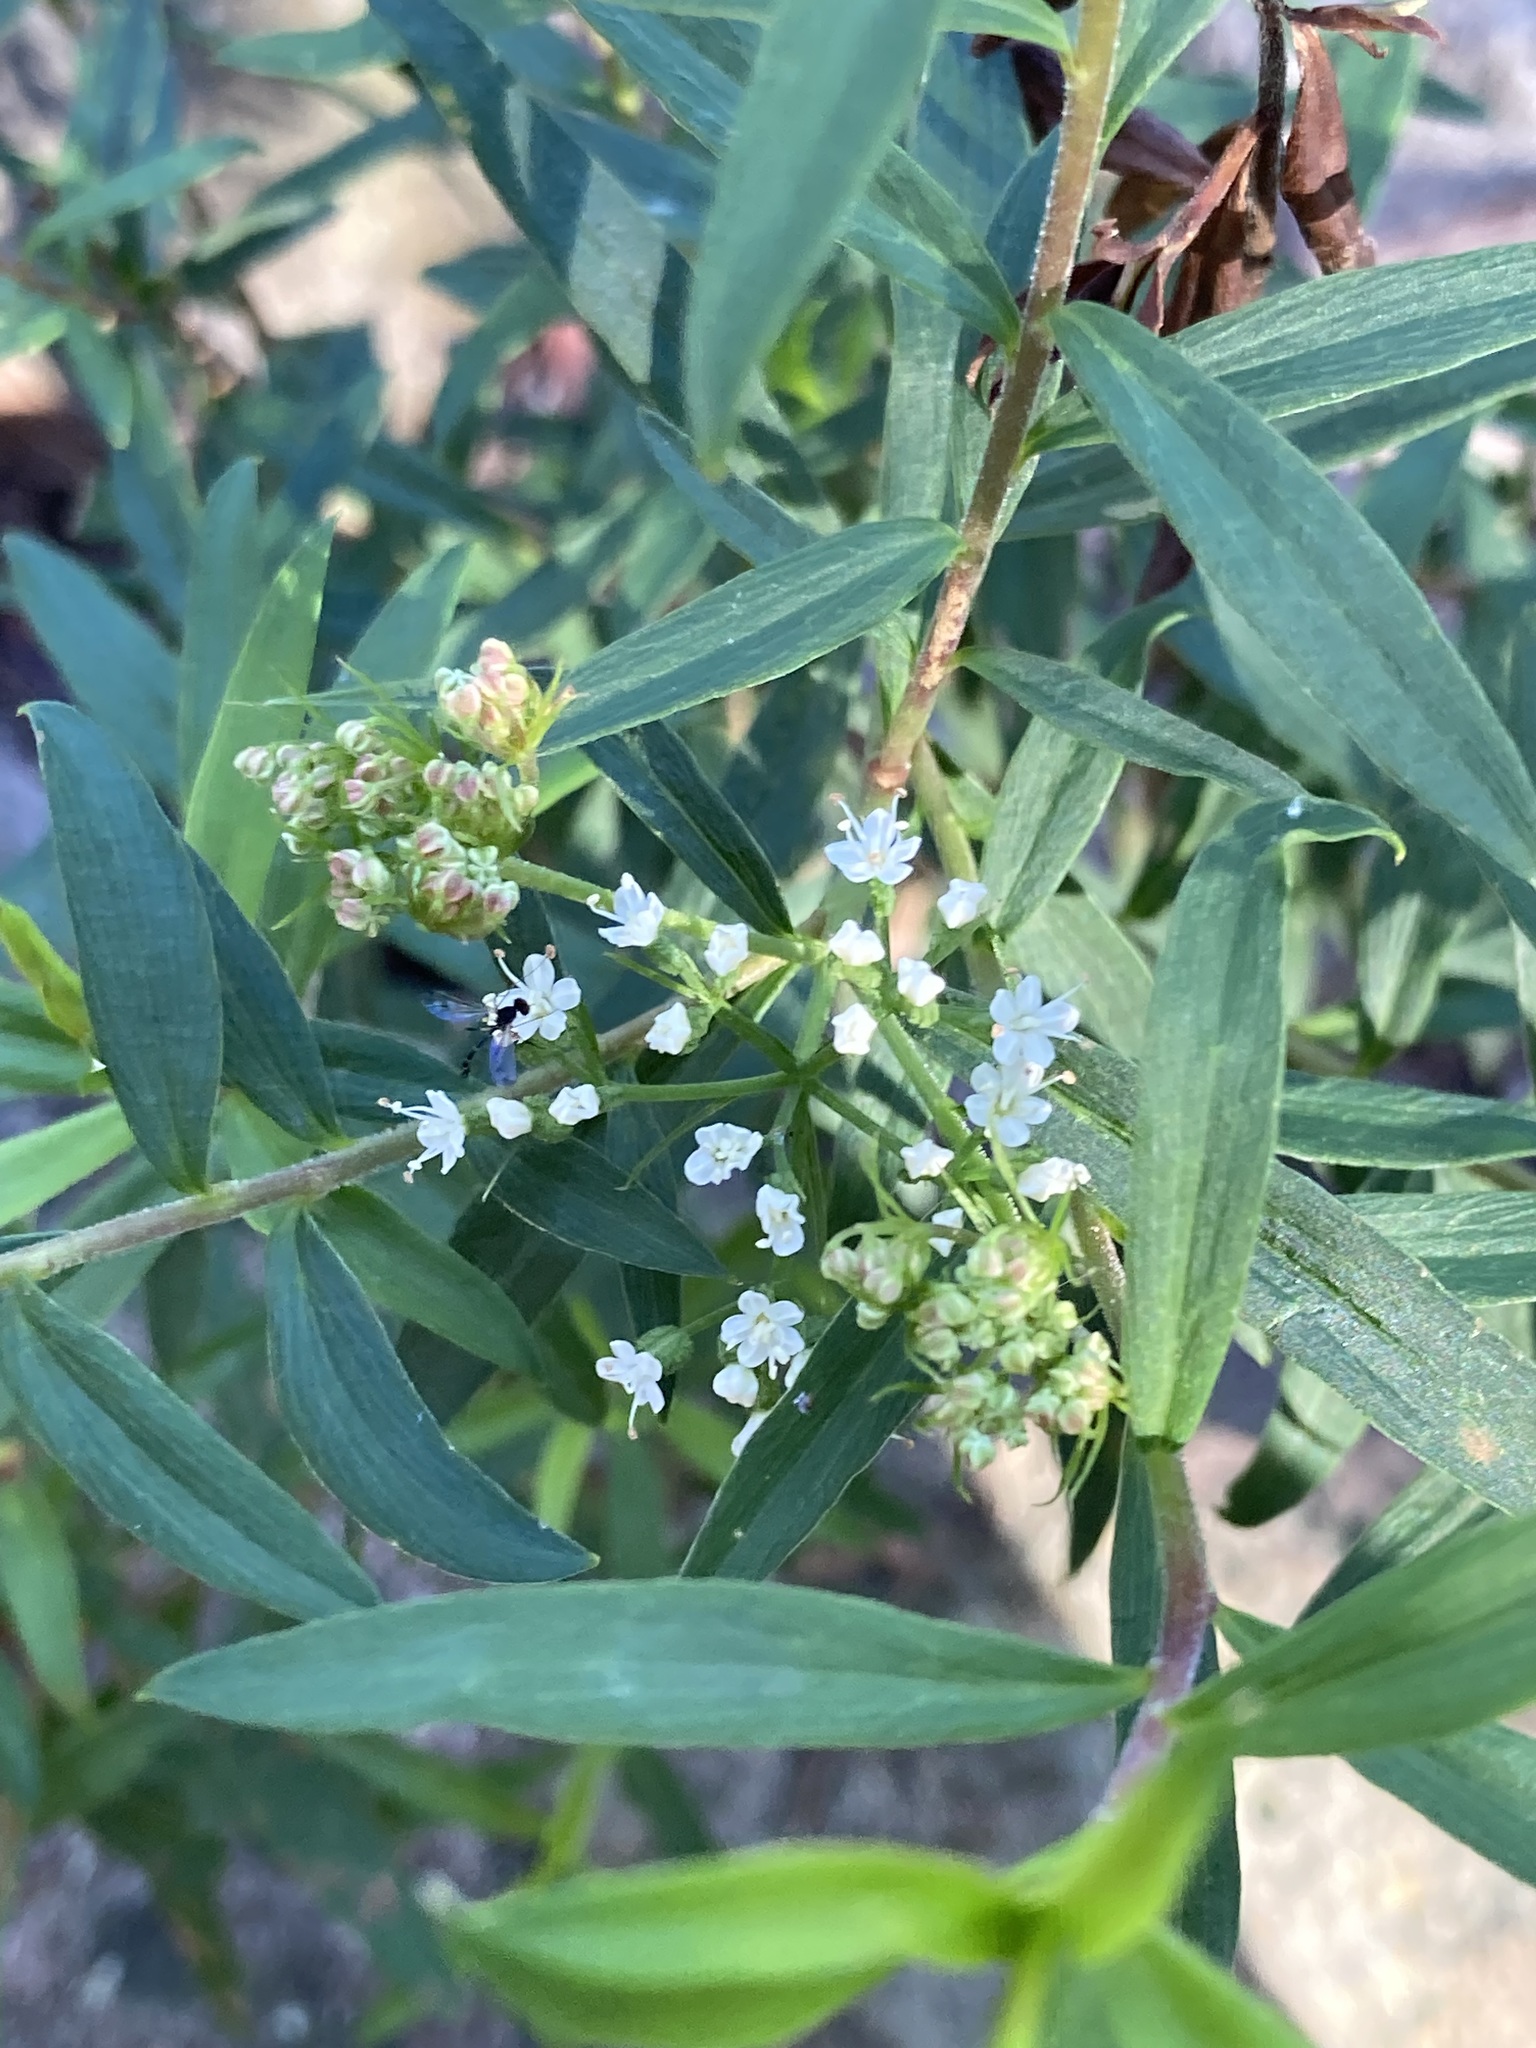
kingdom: Plantae
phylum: Tracheophyta
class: Magnoliopsida
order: Apiales
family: Apiaceae
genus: Platysace
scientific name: Platysace lanceolata
